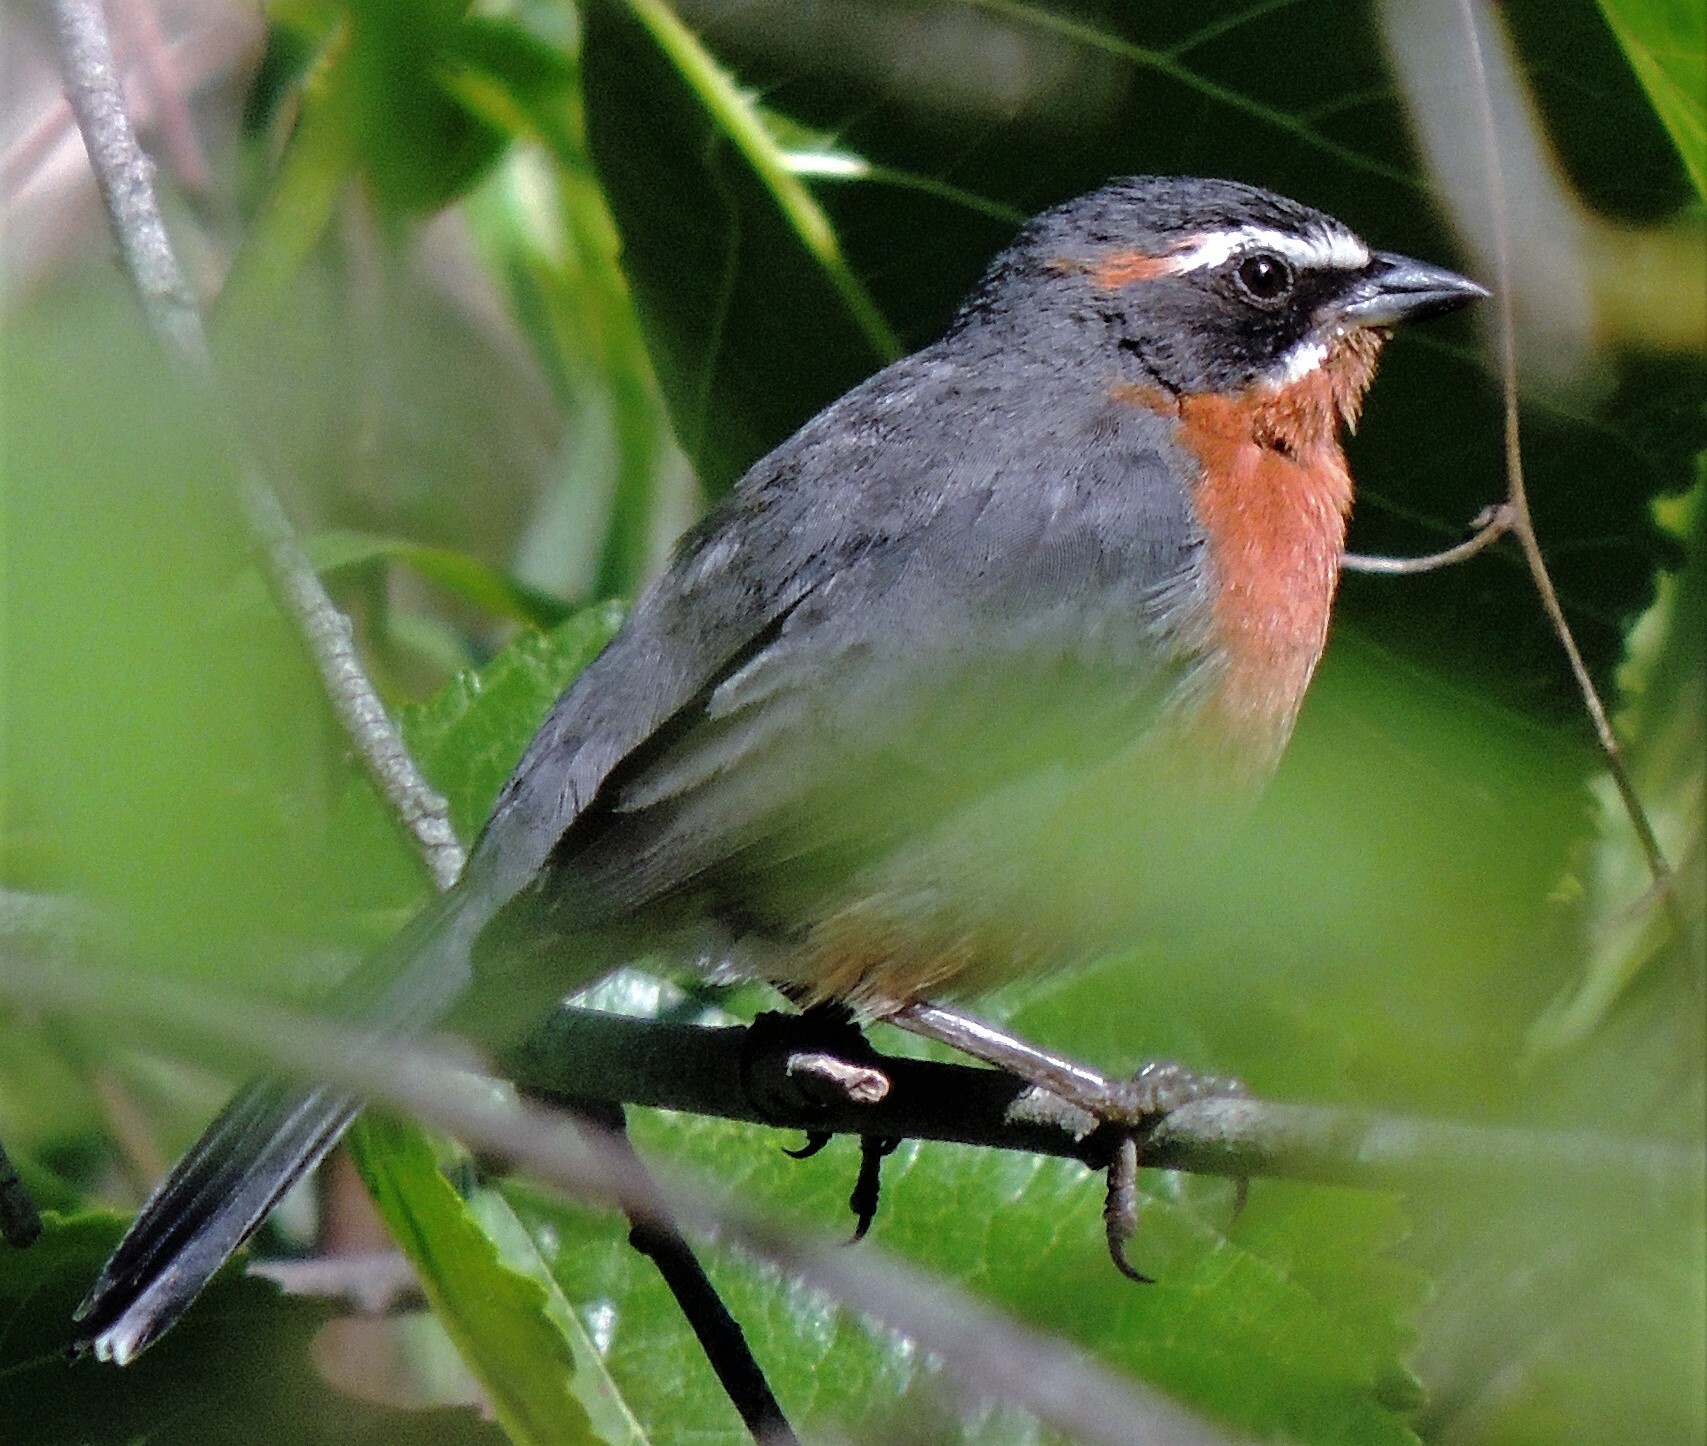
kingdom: Animalia
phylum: Chordata
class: Aves
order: Passeriformes
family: Thraupidae
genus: Poospiza
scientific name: Poospiza nigrorufa
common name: Black-and-rufous warbling finch
